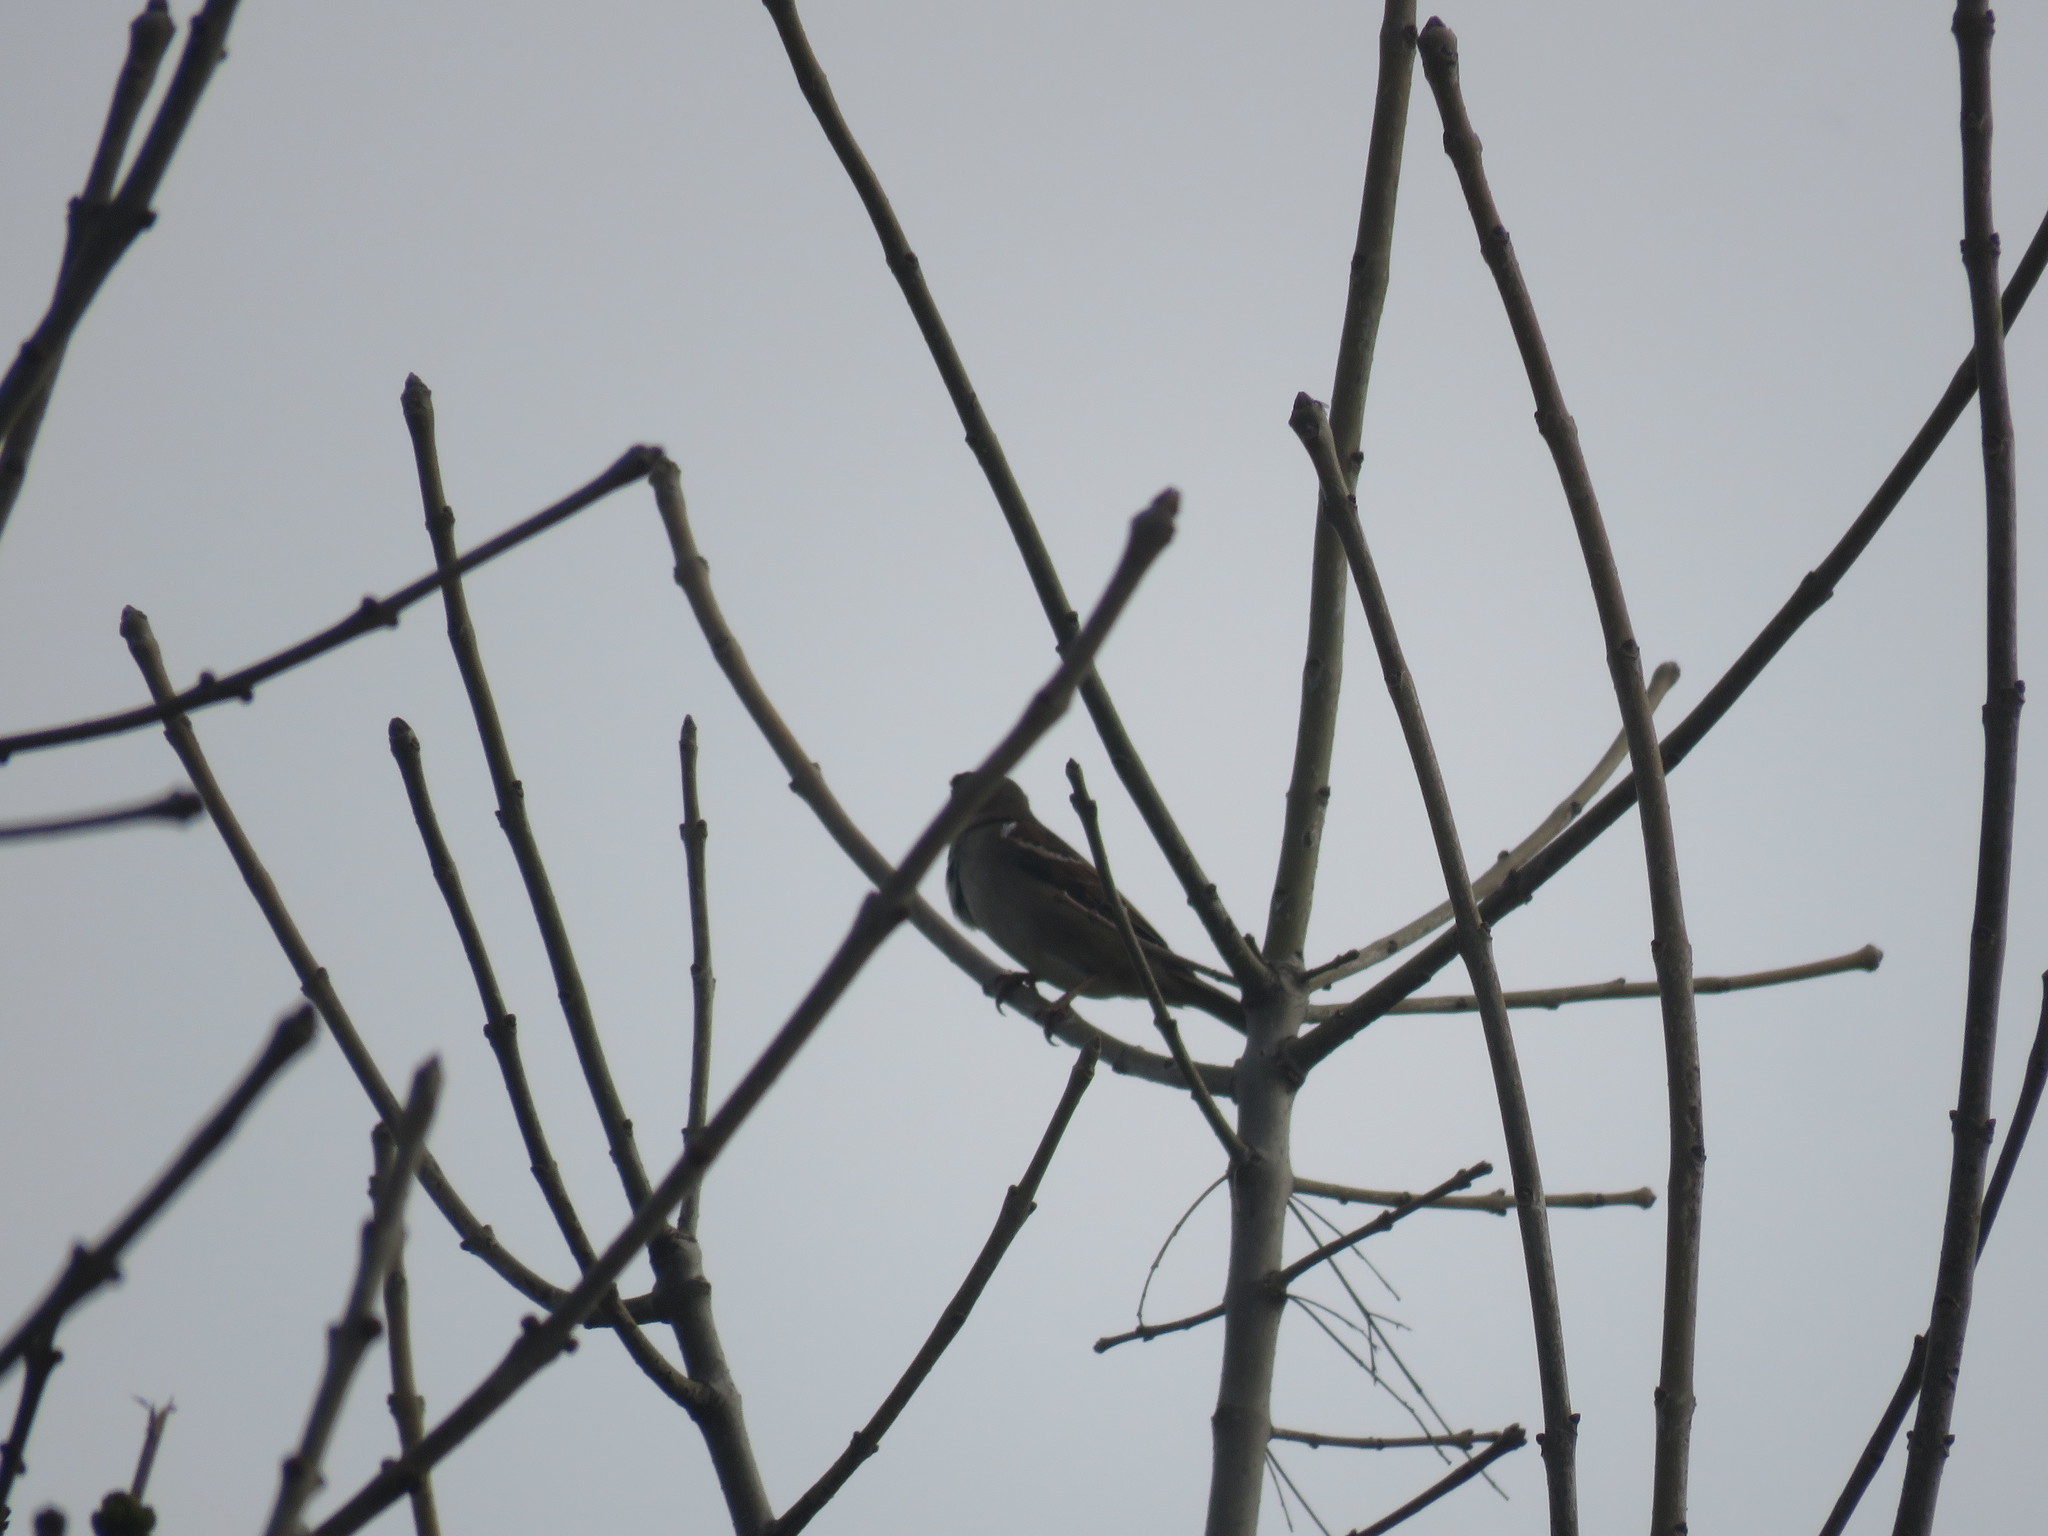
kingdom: Animalia
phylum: Chordata
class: Aves
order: Passeriformes
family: Thraupidae
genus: Rhopospina
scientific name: Rhopospina fruticeti
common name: Mourning sierra finch
